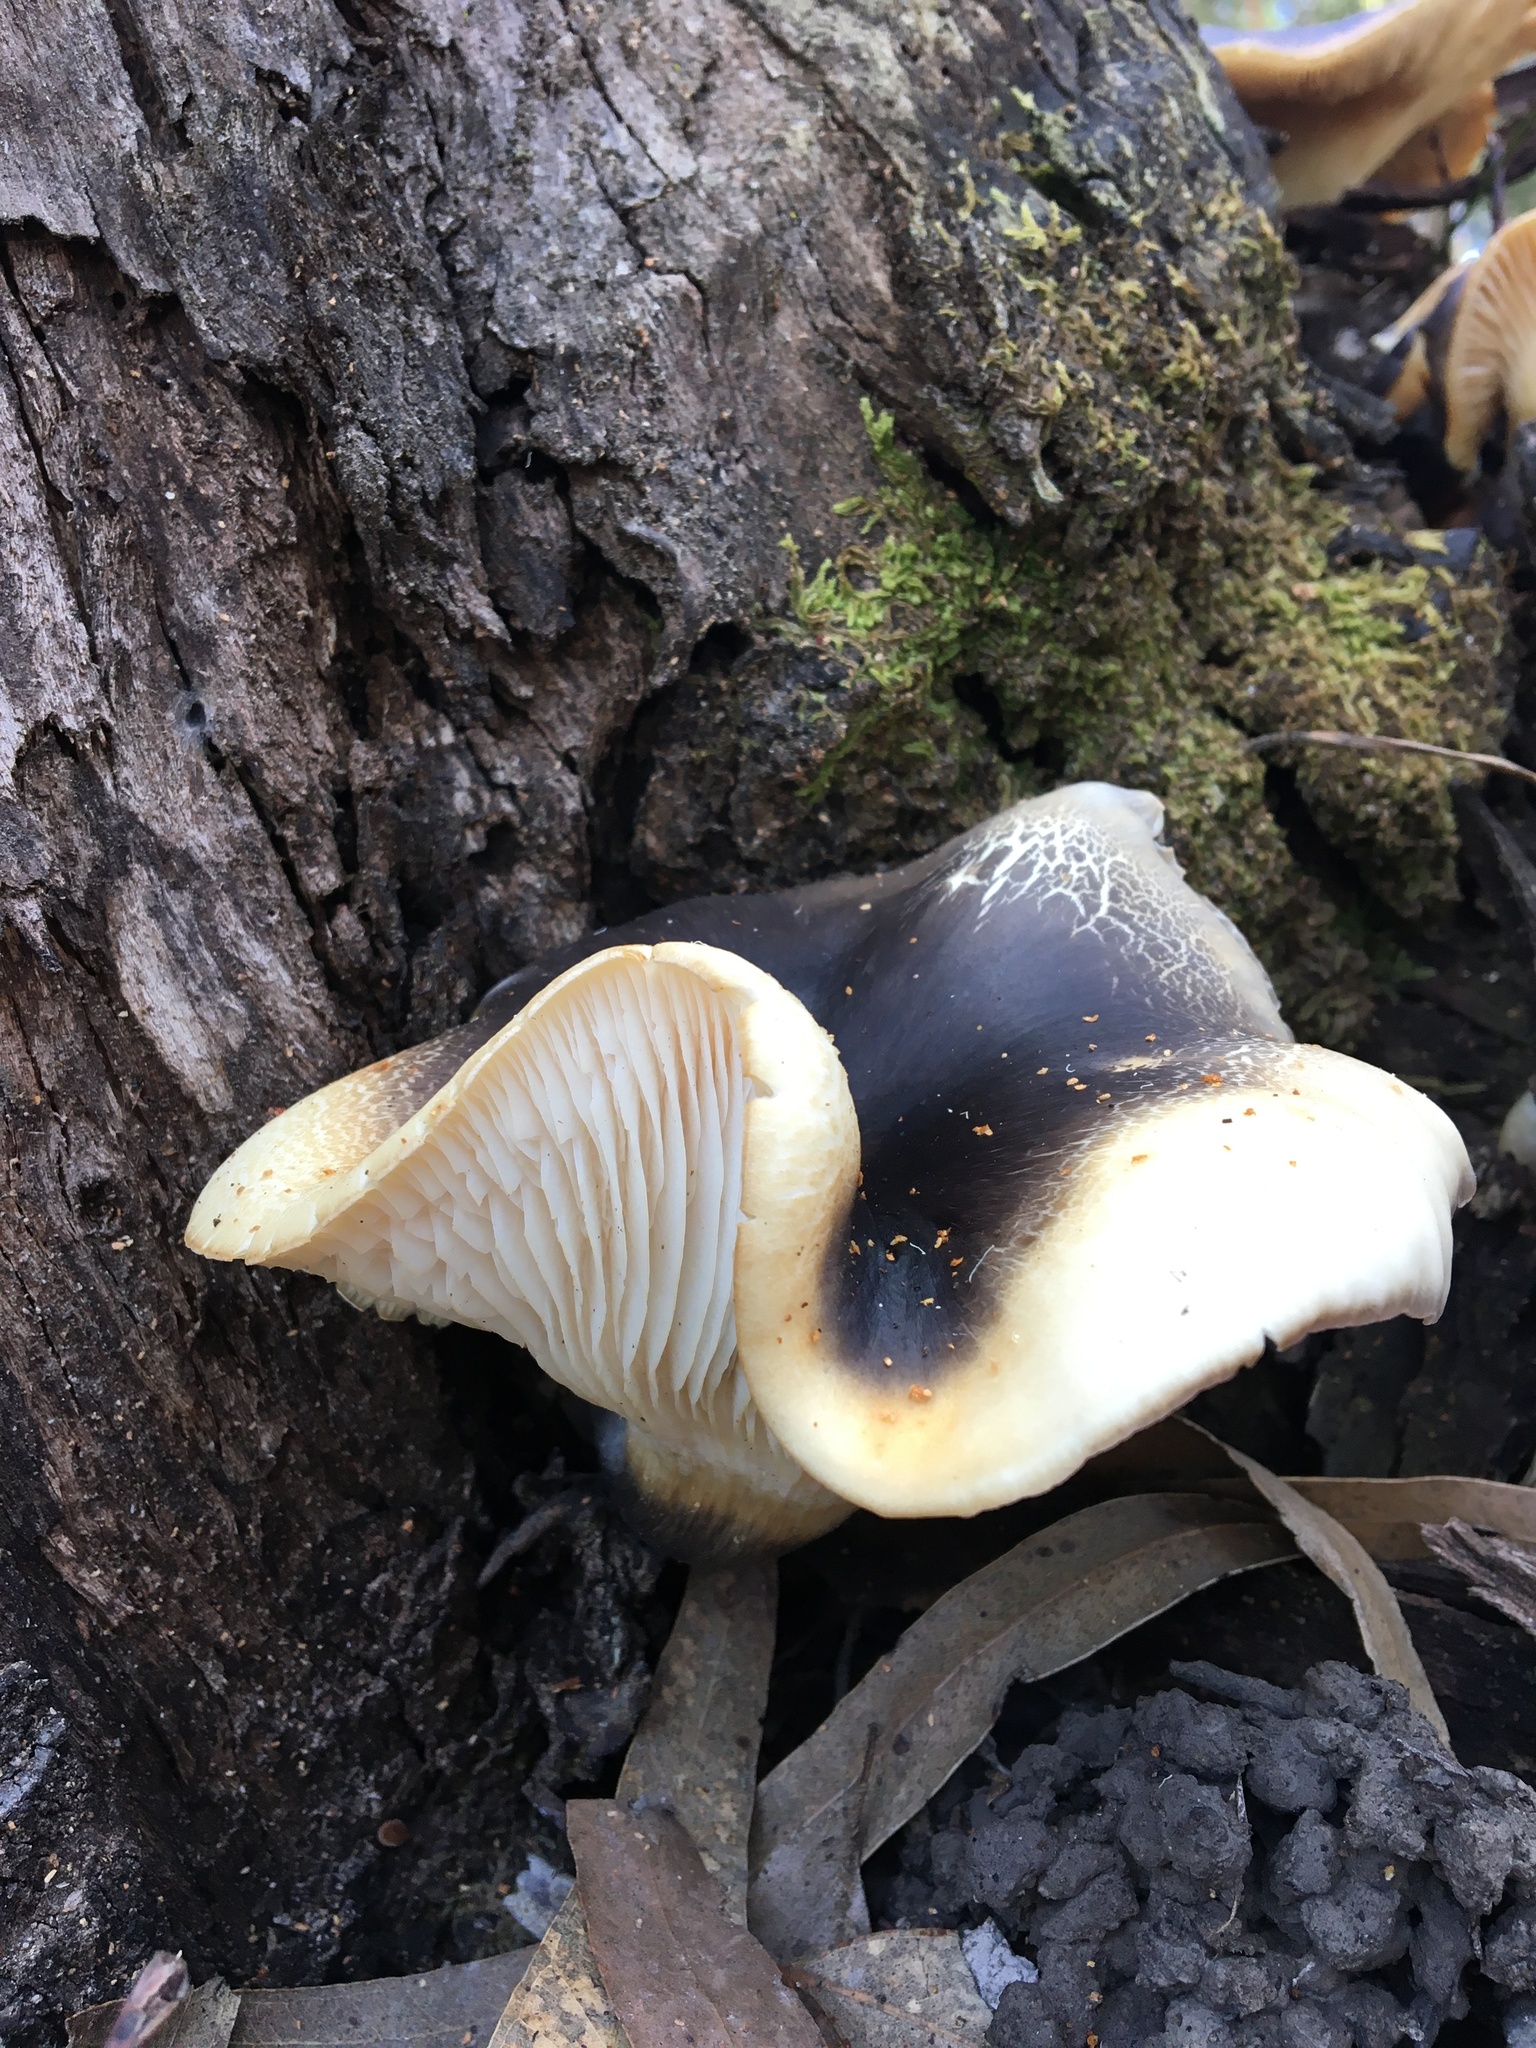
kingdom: Fungi
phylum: Basidiomycota
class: Agaricomycetes
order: Agaricales
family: Omphalotaceae
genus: Omphalotus
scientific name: Omphalotus nidiformis
